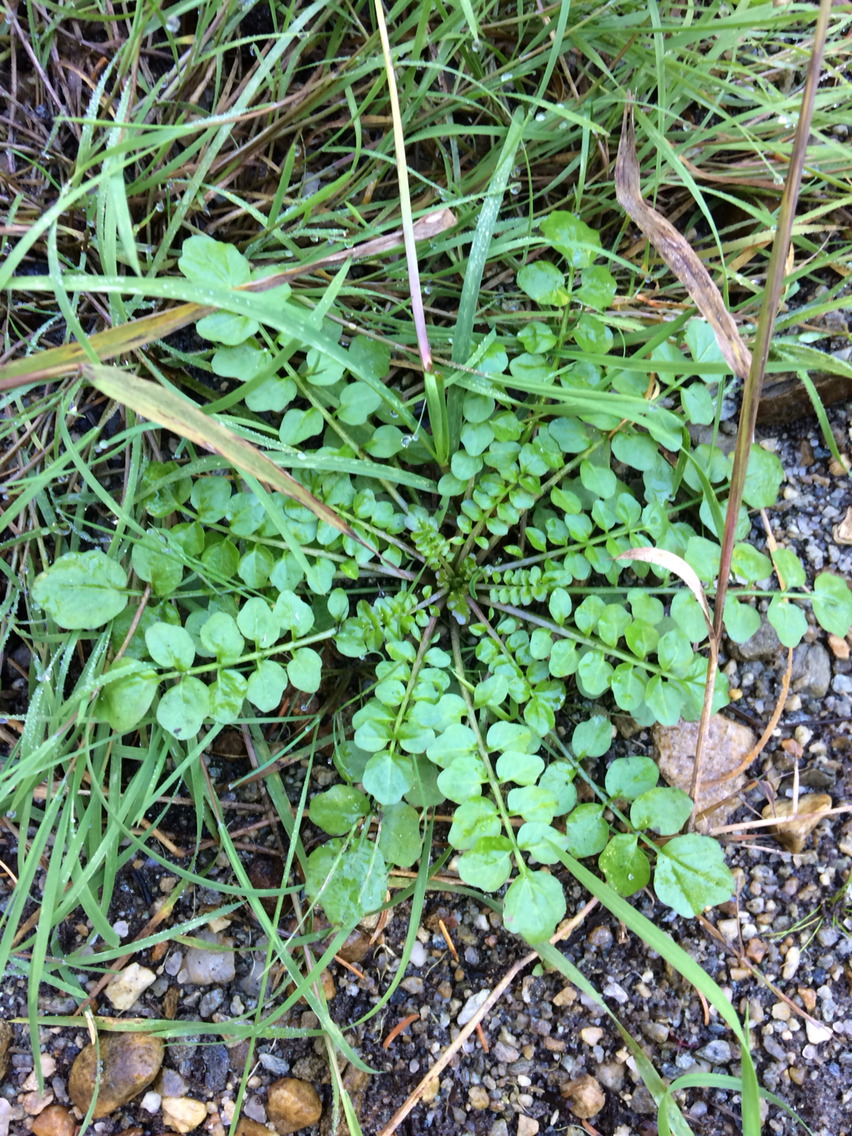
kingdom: Plantae
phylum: Tracheophyta
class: Magnoliopsida
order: Brassicales
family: Brassicaceae
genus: Cardamine
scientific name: Cardamine pratensis
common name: Cuckoo flower
